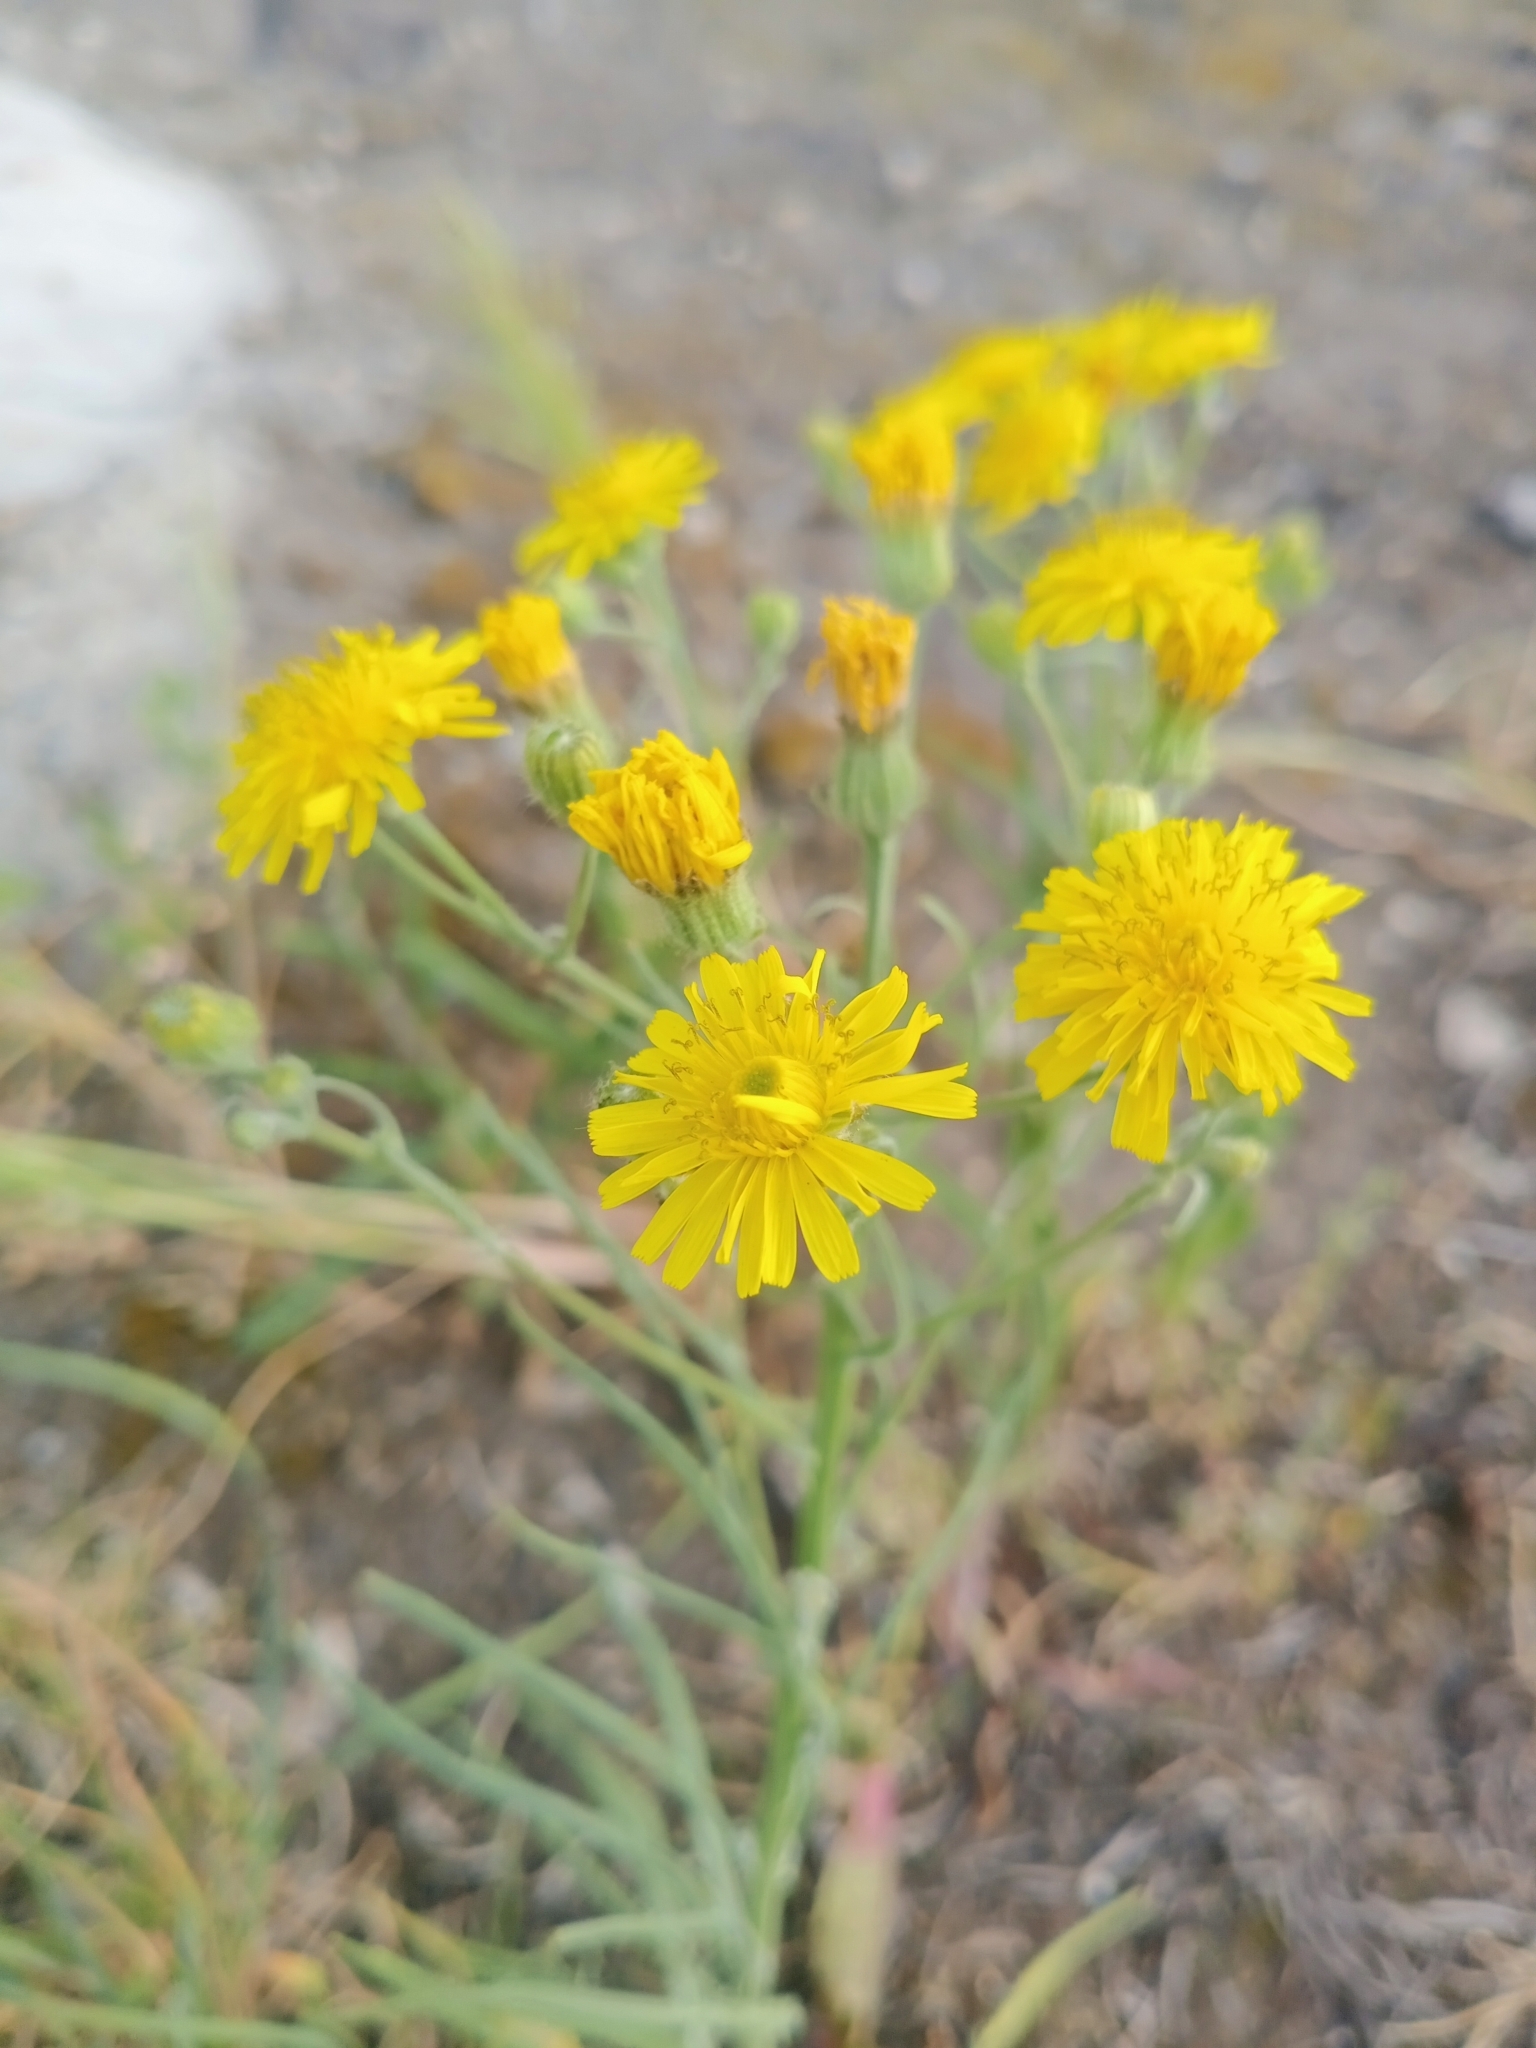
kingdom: Plantae
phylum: Tracheophyta
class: Magnoliopsida
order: Asterales
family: Asteraceae
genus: Crepis
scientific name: Crepis tectorum
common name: Narrow-leaved hawk's-beard
